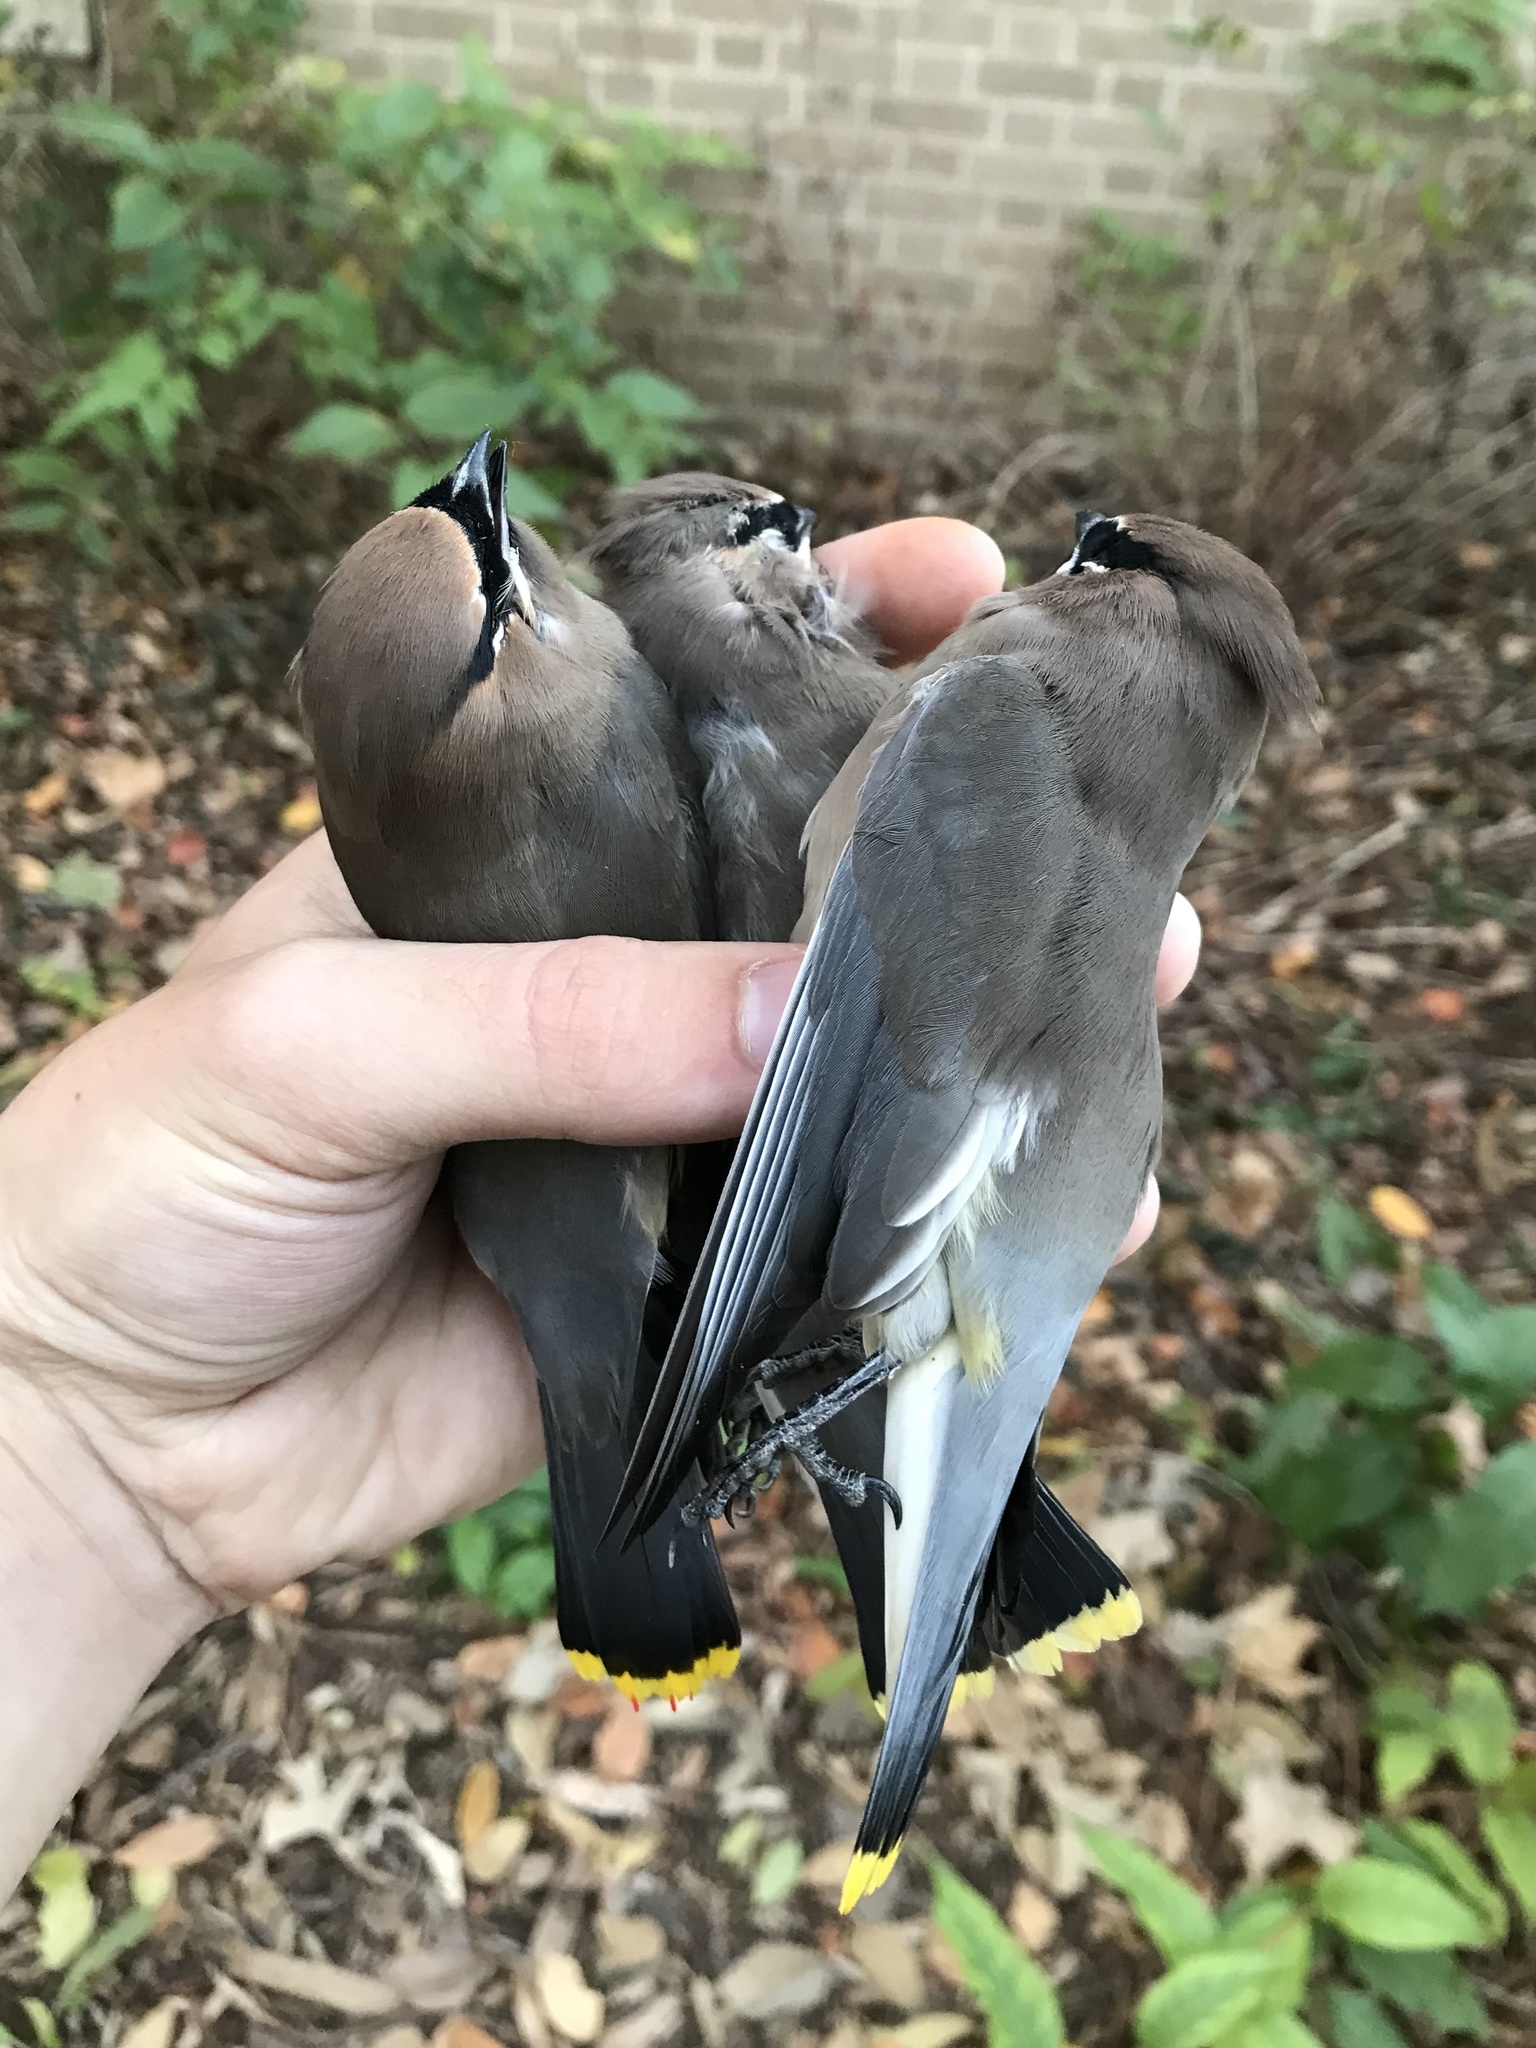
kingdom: Animalia
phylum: Chordata
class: Aves
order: Passeriformes
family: Bombycillidae
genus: Bombycilla
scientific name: Bombycilla cedrorum
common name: Cedar waxwing
